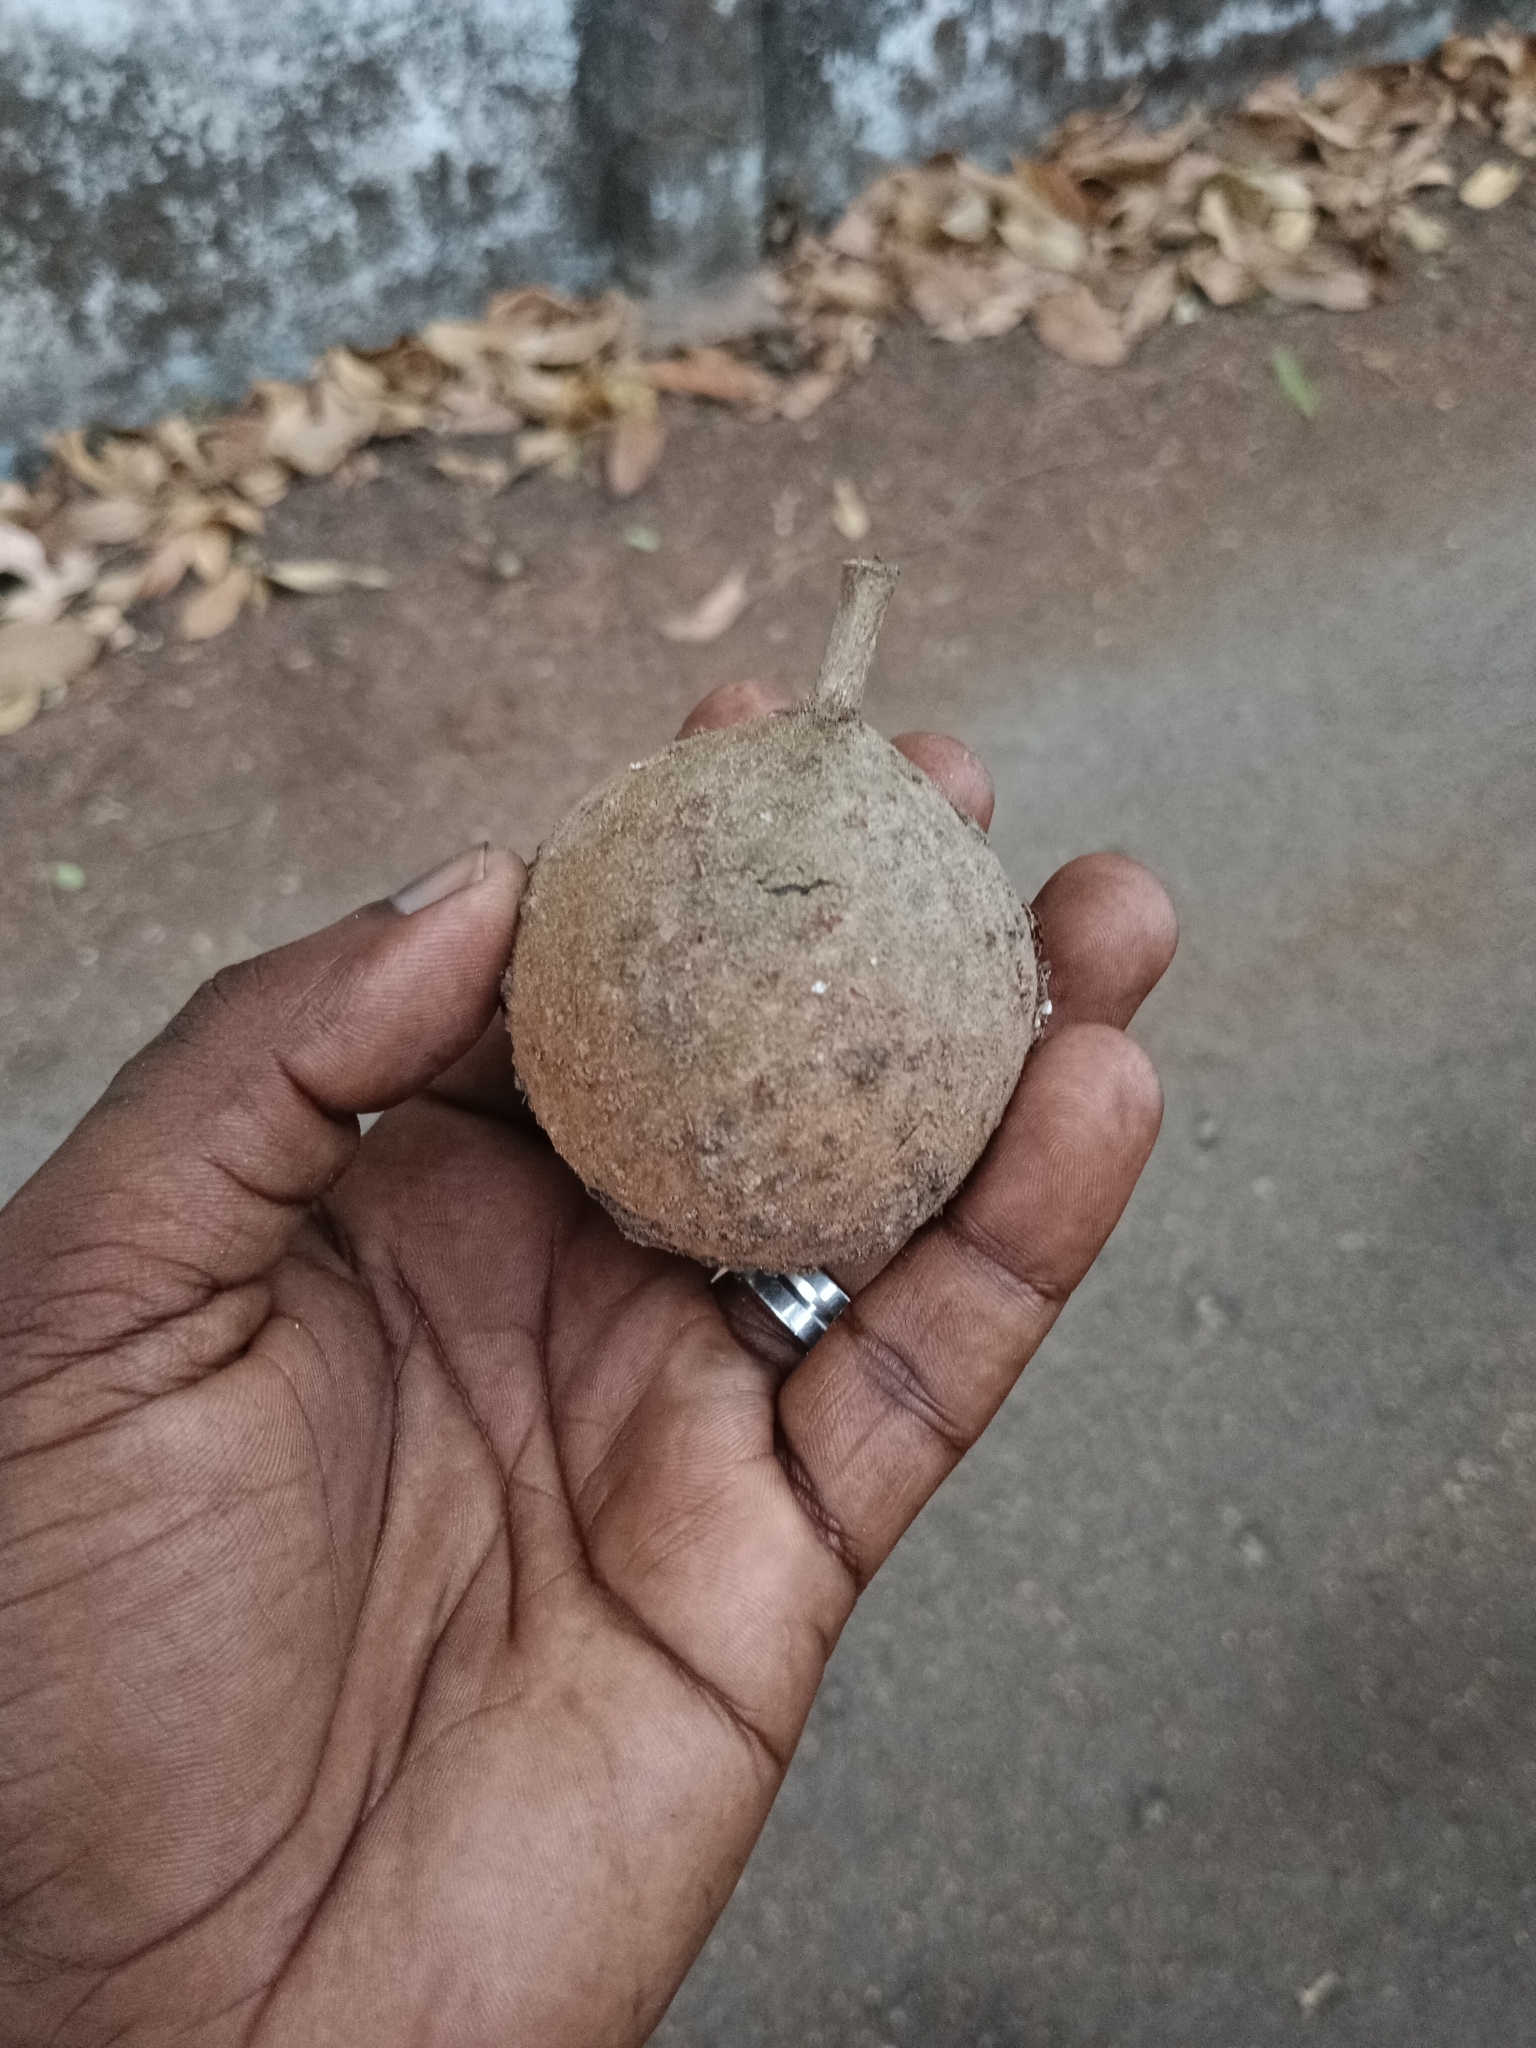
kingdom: Plantae
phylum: Tracheophyta
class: Magnoliopsida
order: Malpighiales
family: Achariaceae
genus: Hydnocarpus
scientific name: Hydnocarpus pentandrus
